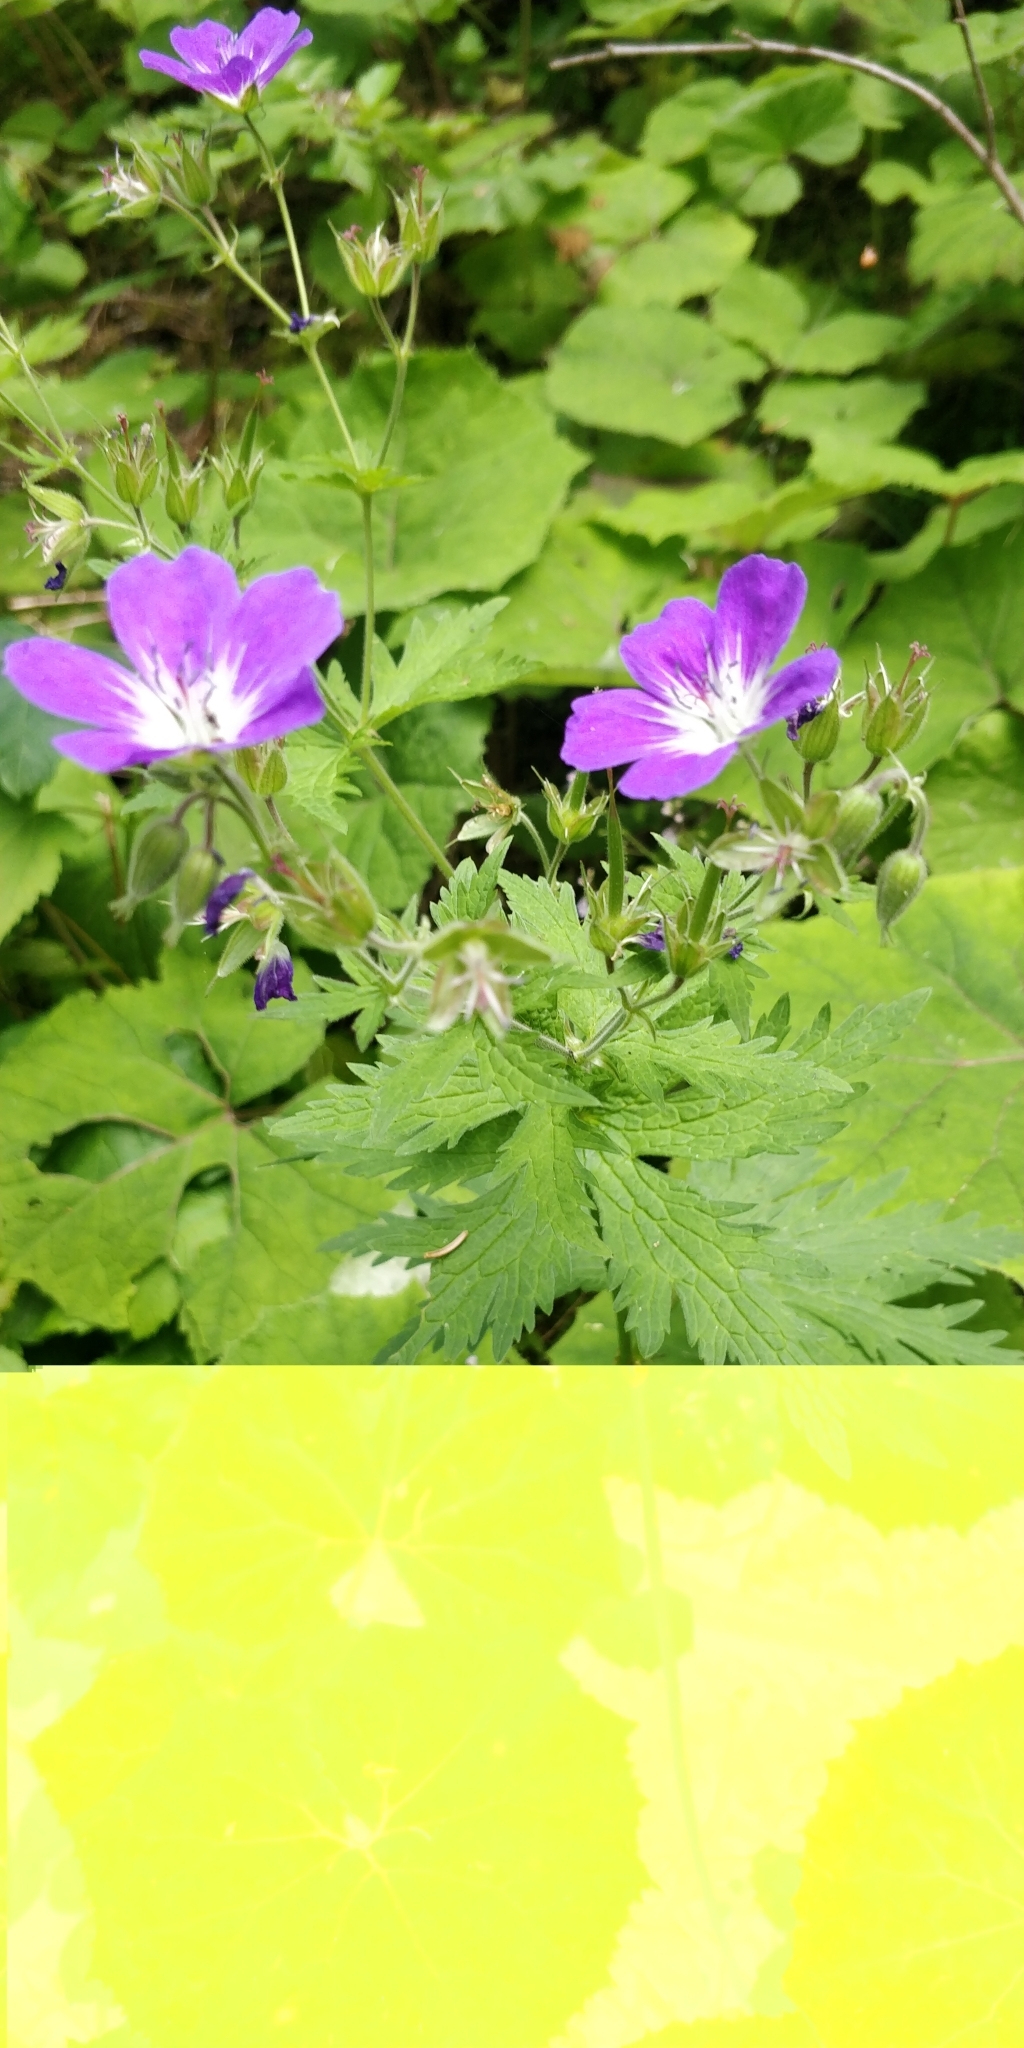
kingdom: Plantae
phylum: Tracheophyta
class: Magnoliopsida
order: Geraniales
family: Geraniaceae
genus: Geranium
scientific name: Geranium sylvaticum
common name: Wood crane's-bill
